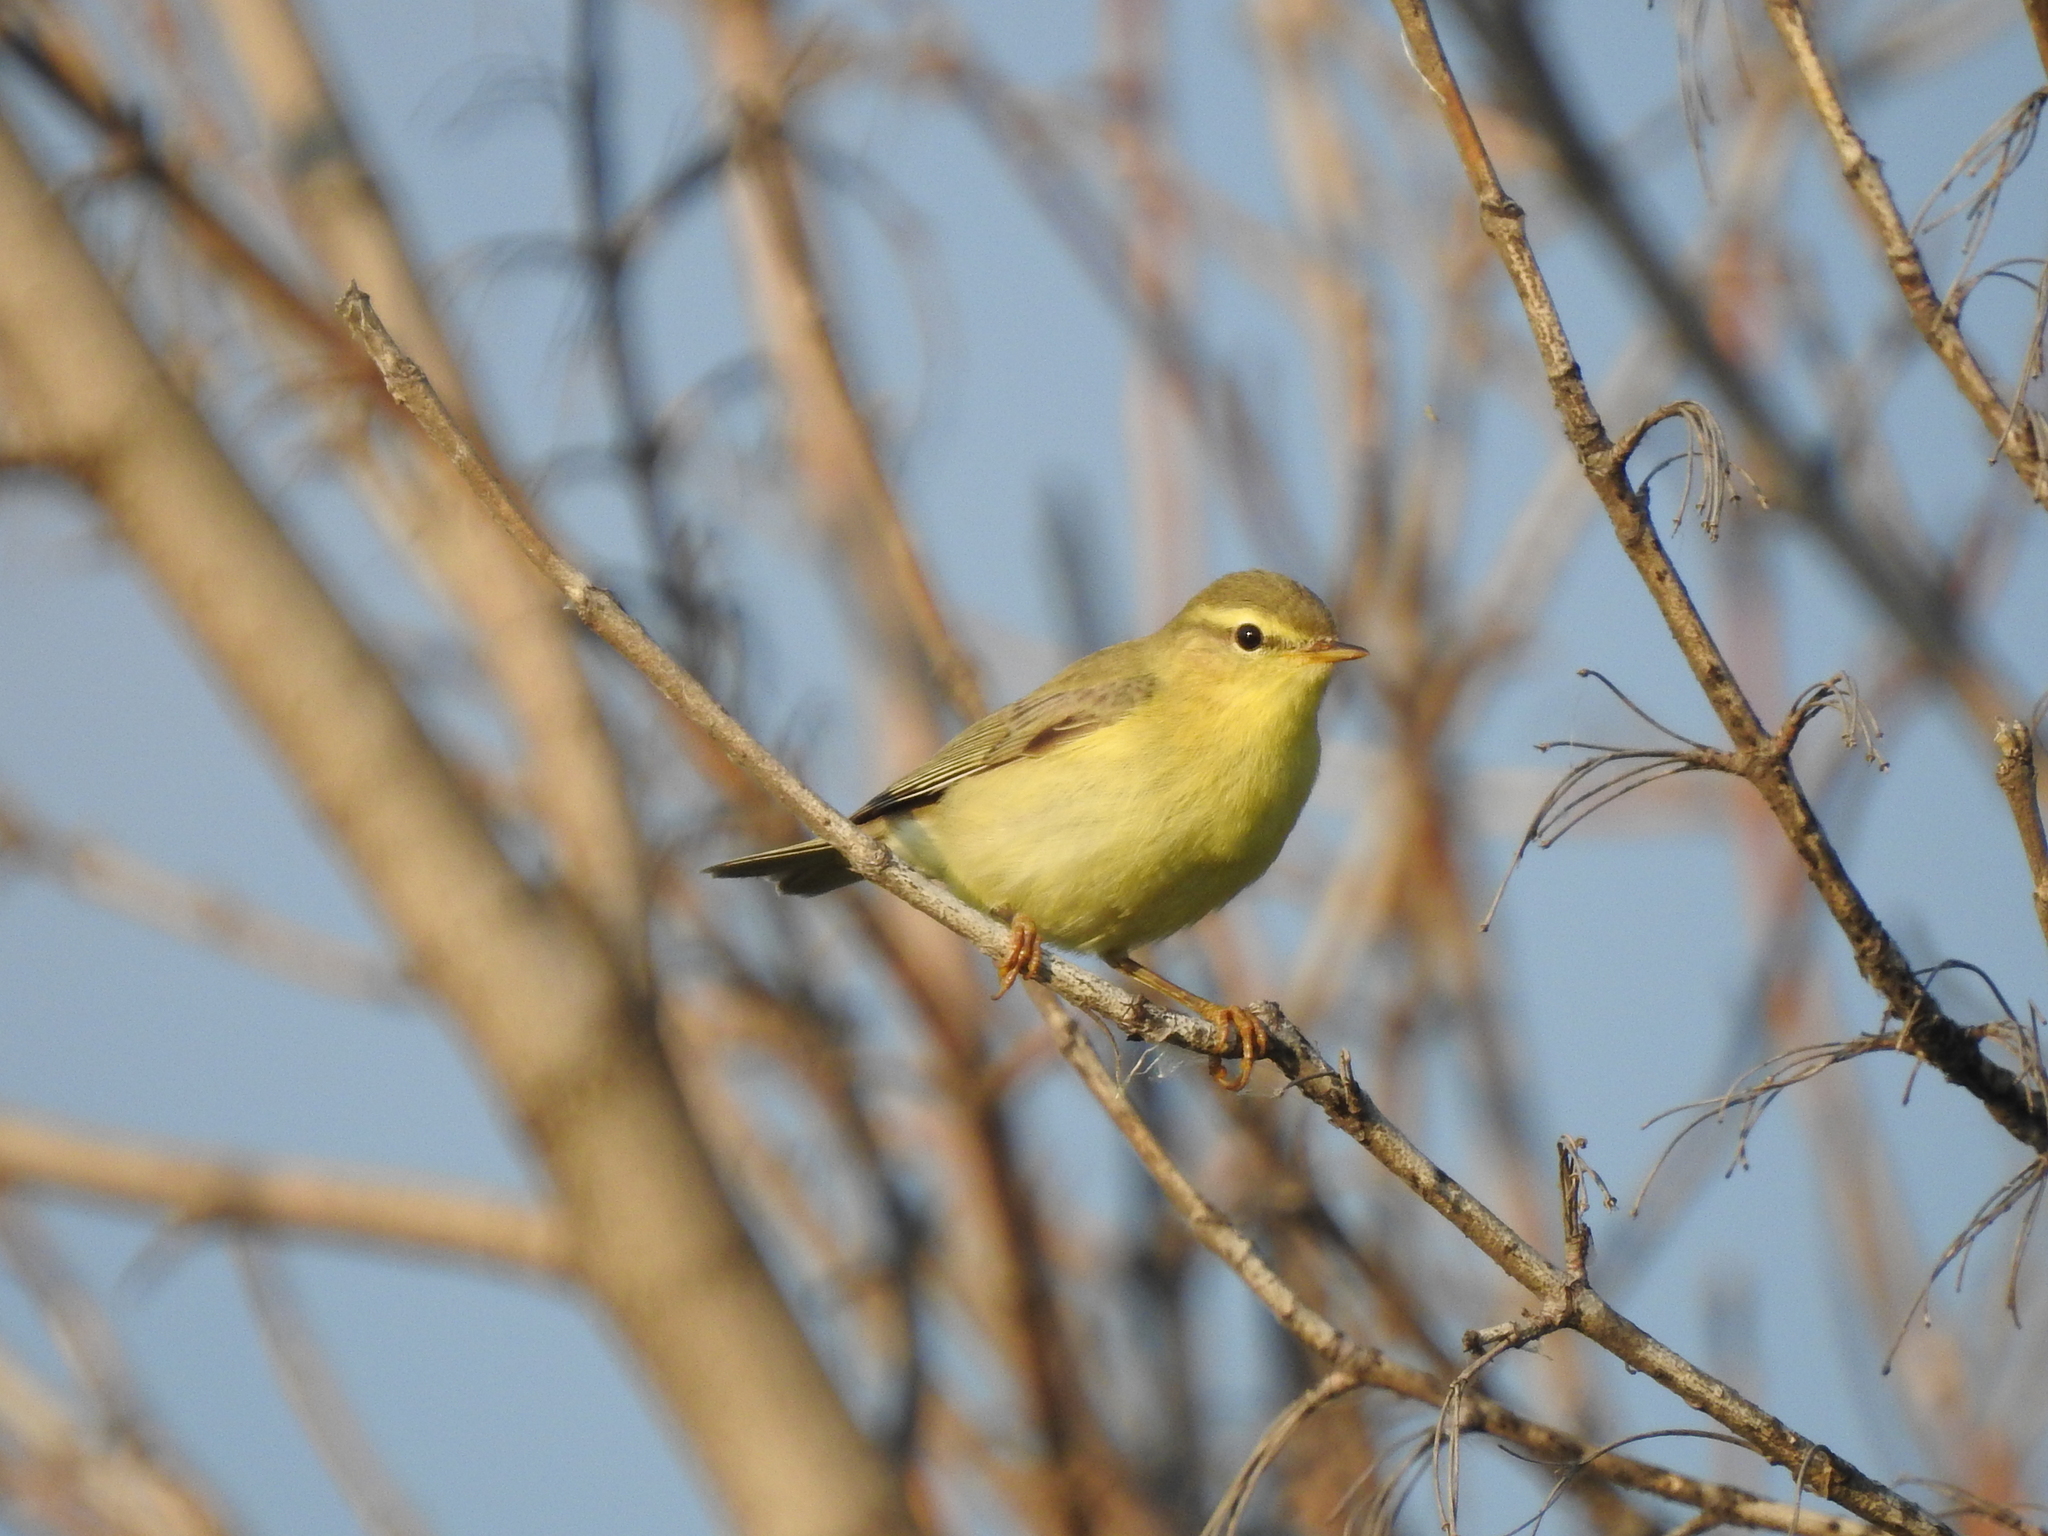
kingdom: Animalia
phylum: Chordata
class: Aves
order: Passeriformes
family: Phylloscopidae
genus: Phylloscopus
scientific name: Phylloscopus trochilus
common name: Willow warbler
